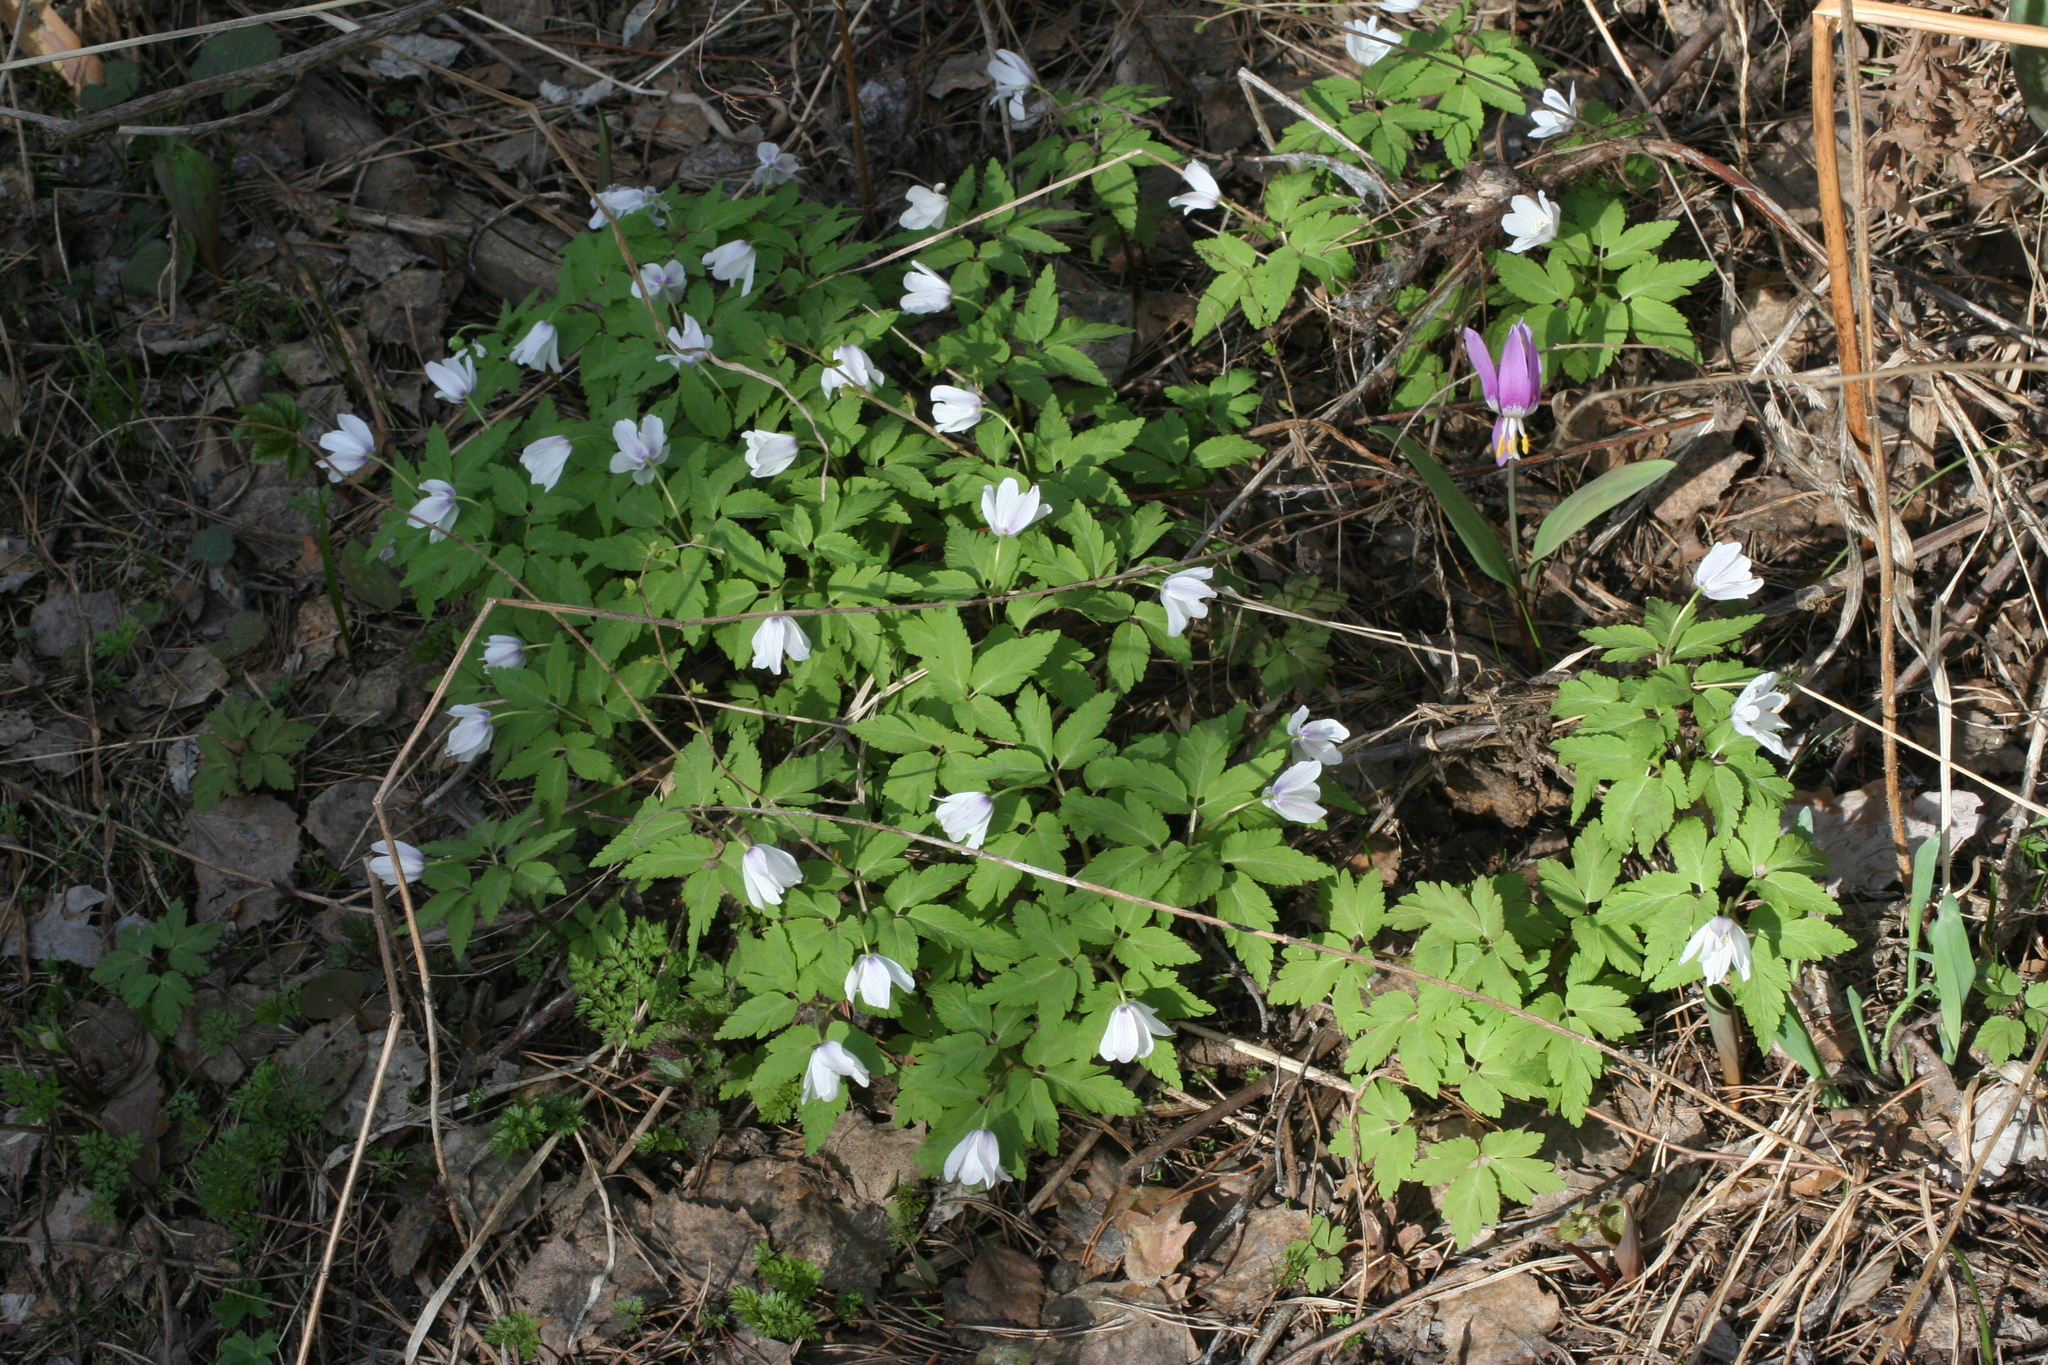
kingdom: Plantae
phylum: Tracheophyta
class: Magnoliopsida
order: Ranunculales
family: Ranunculaceae
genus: Anemone
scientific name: Anemone altaica
